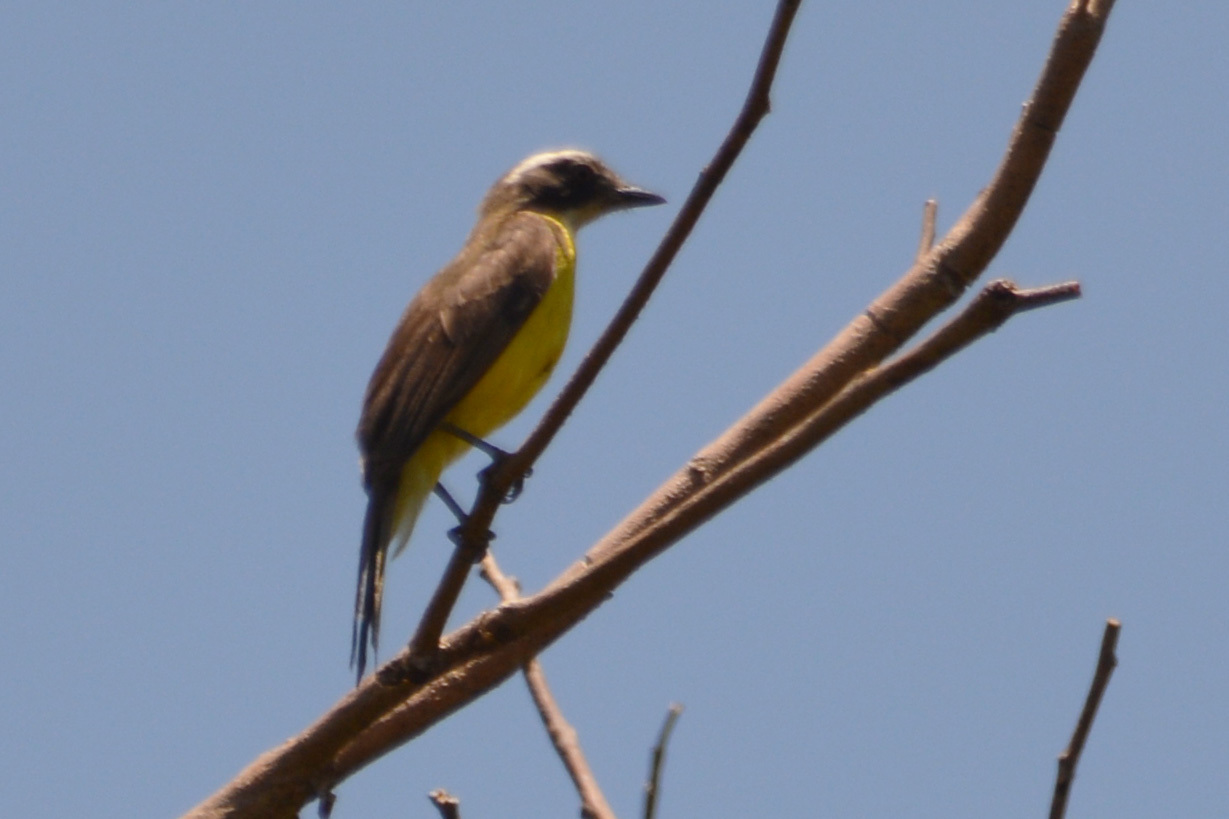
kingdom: Animalia
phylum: Chordata
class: Aves
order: Passeriformes
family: Tyrannidae
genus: Myiozetetes
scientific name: Myiozetetes similis
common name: Social flycatcher
